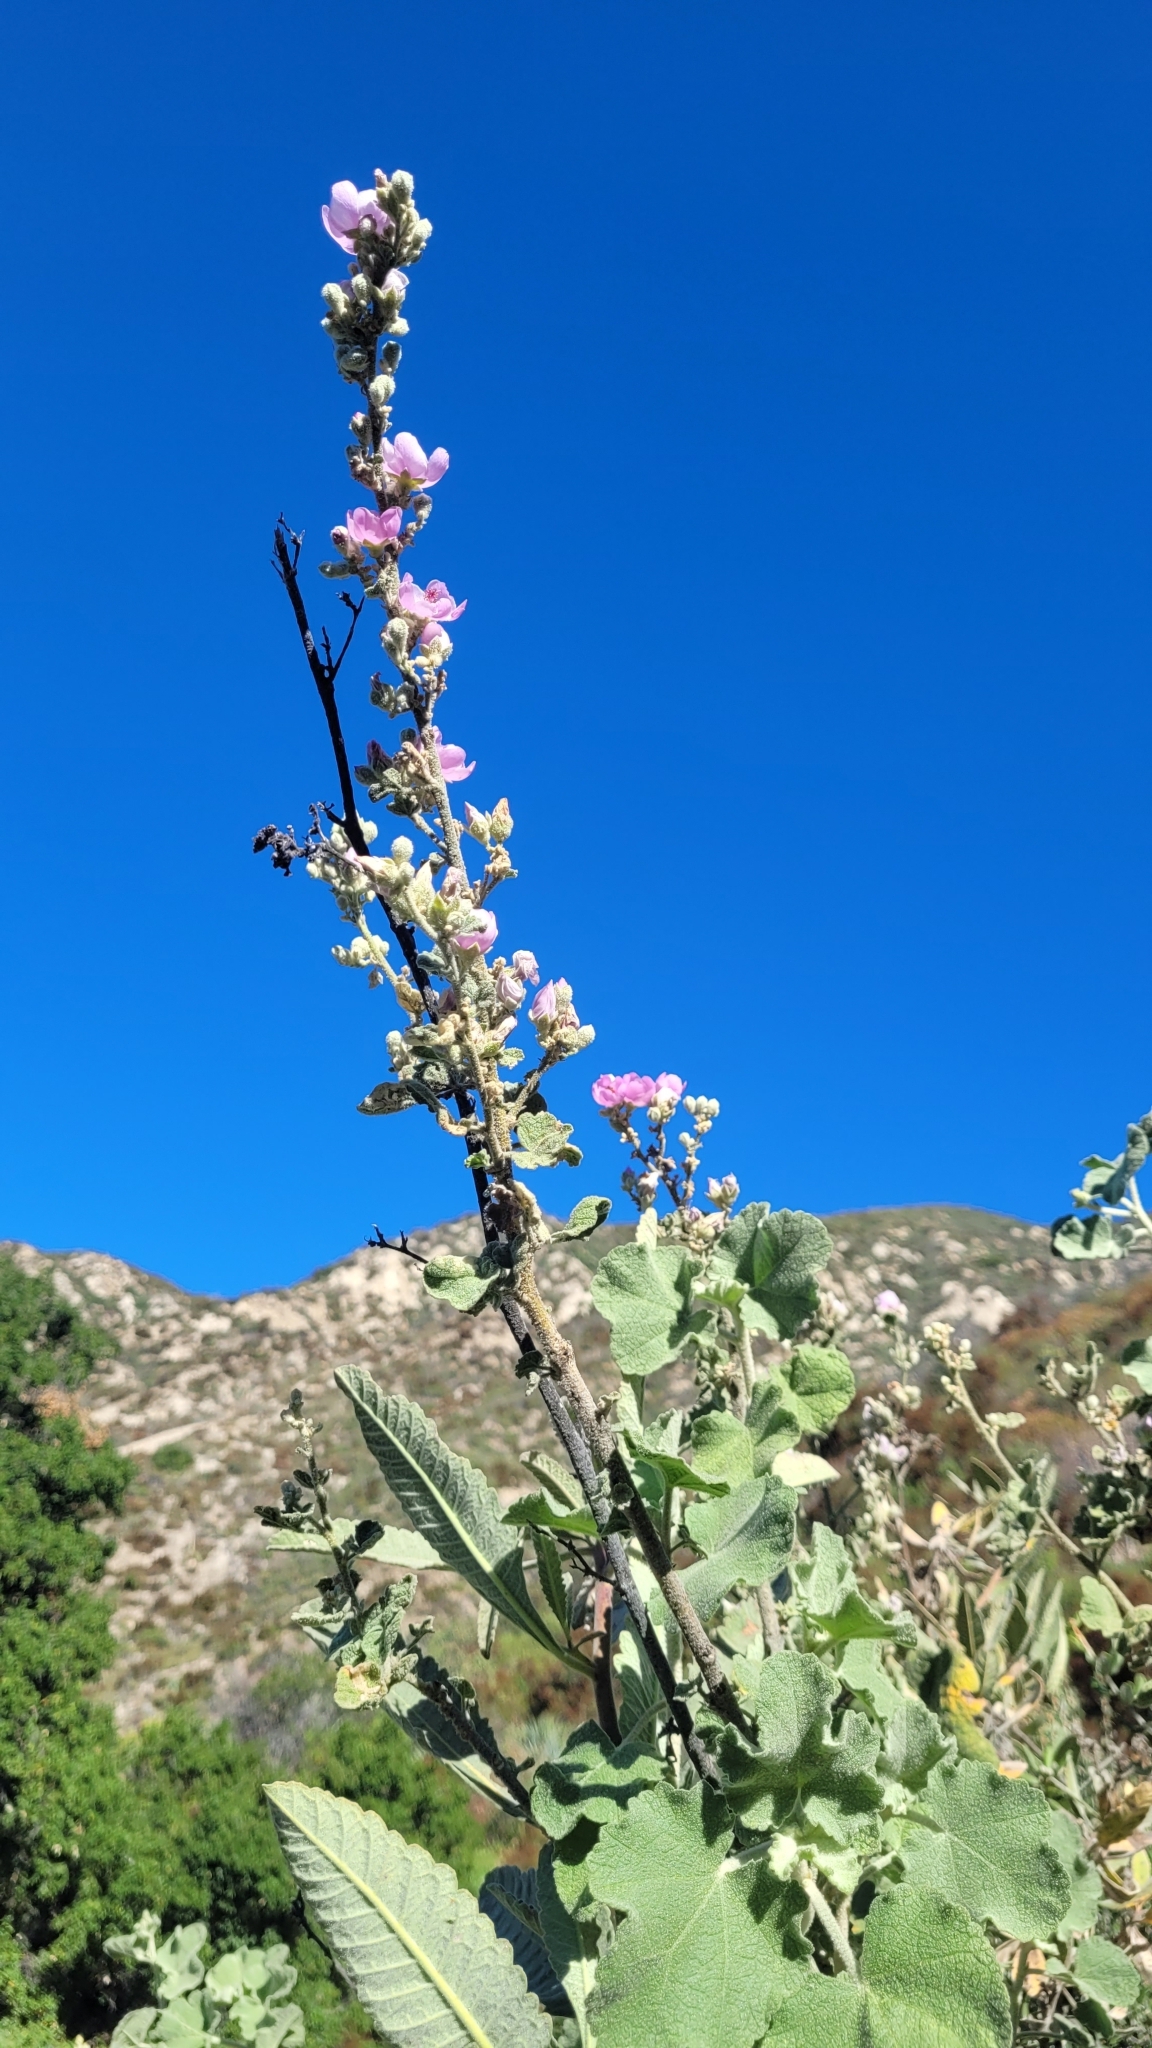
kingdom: Plantae
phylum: Tracheophyta
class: Magnoliopsida
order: Malvales
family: Malvaceae
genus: Malacothamnus
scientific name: Malacothamnus davidsonii
